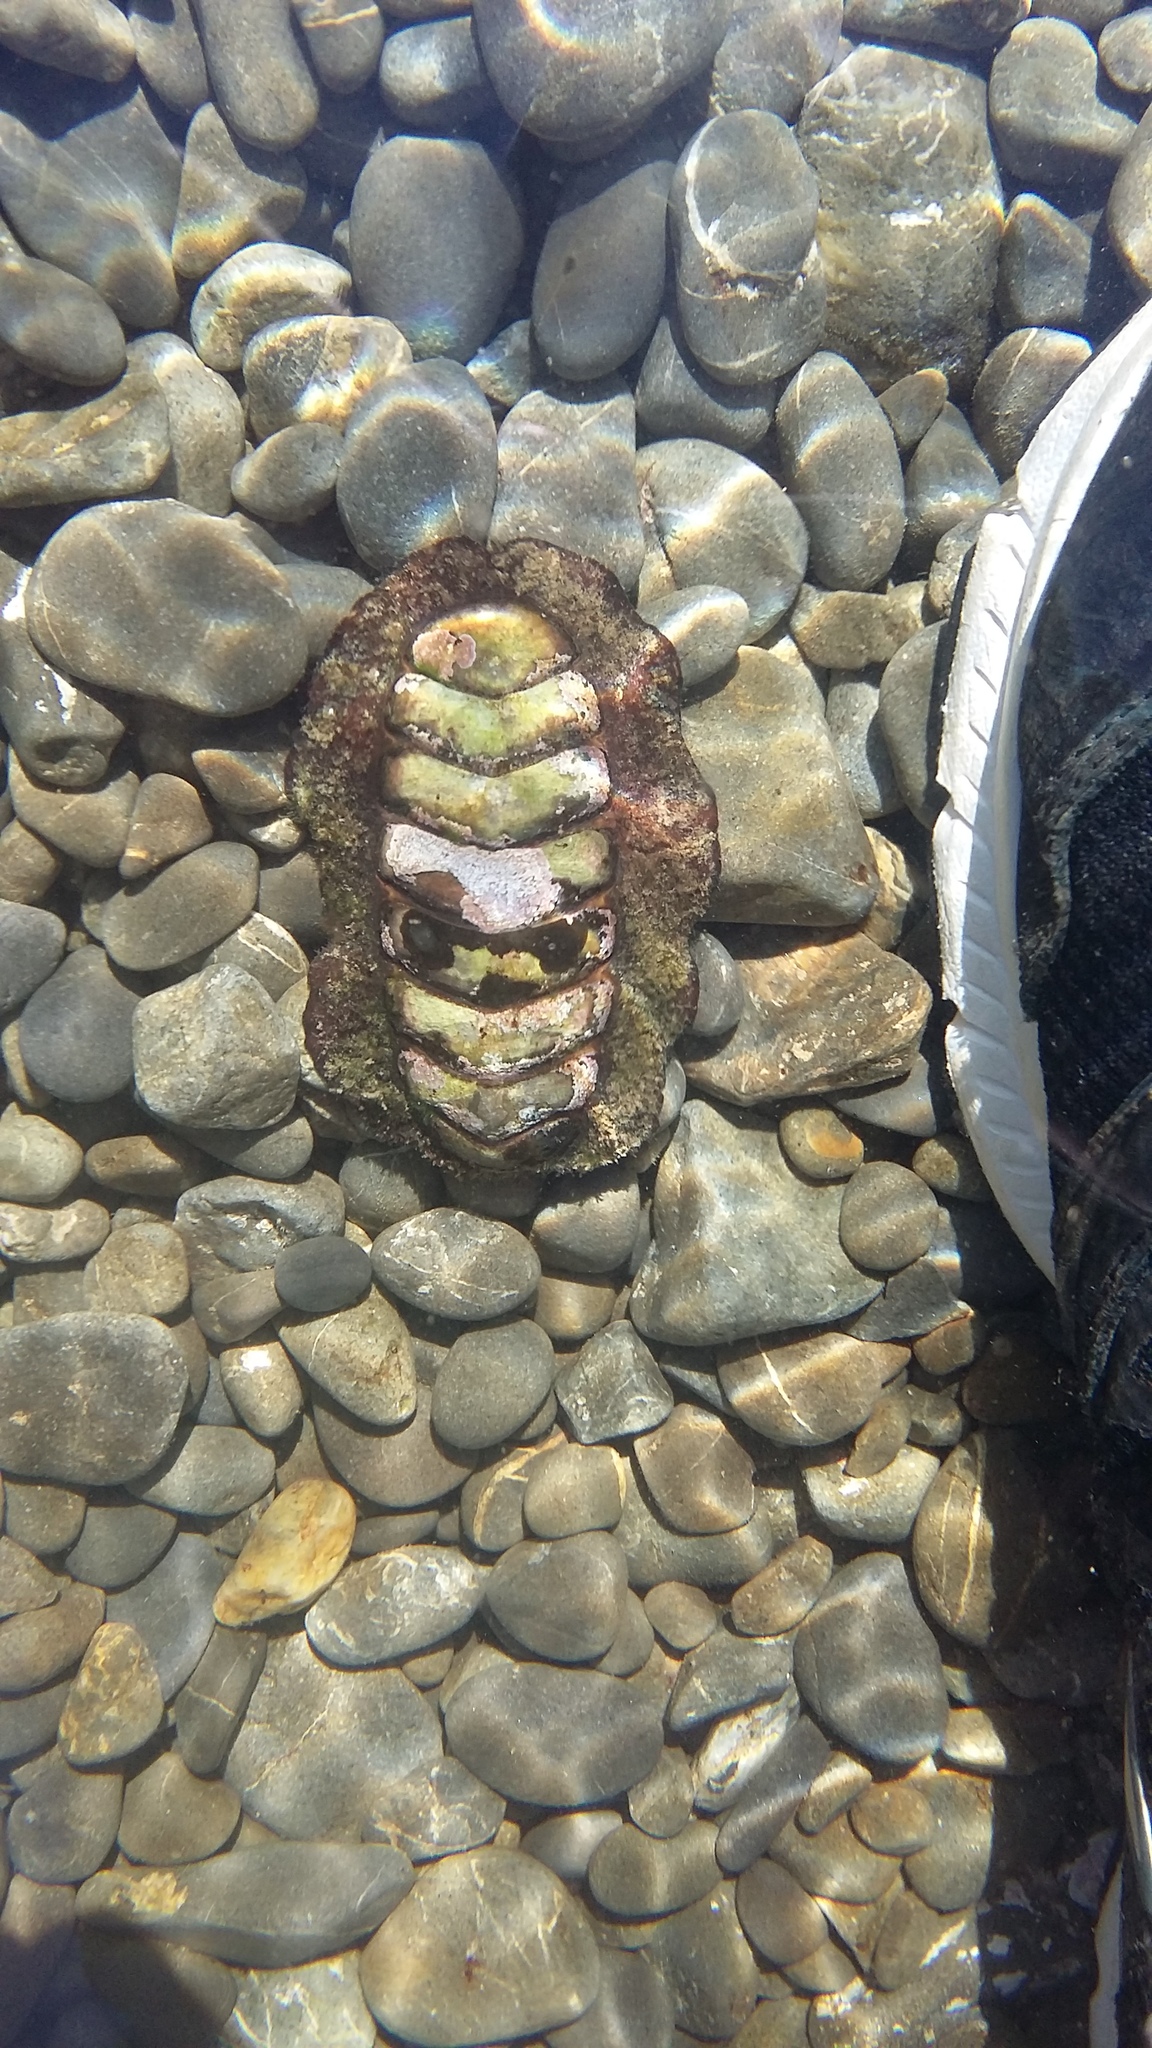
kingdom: Animalia
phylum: Mollusca
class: Polyplacophora
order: Callochitonida
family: Callochitonidae
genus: Eudoxochiton
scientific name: Eudoxochiton nobilis
